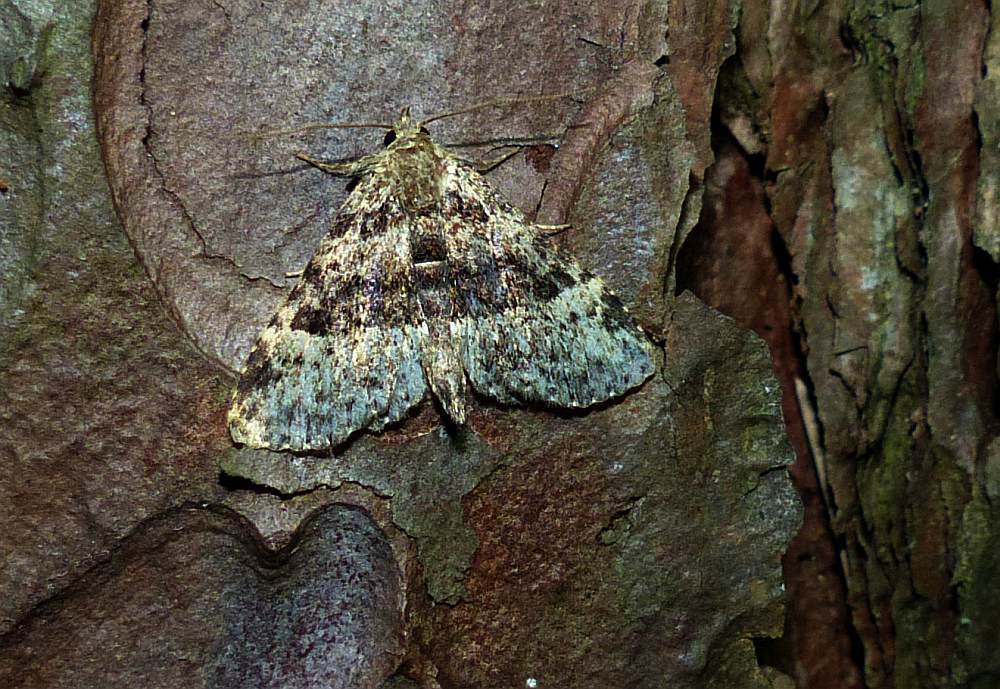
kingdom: Animalia
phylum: Arthropoda
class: Insecta
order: Lepidoptera
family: Erebidae
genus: Metalectra
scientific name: Metalectra discalis
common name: Common fungus moth
